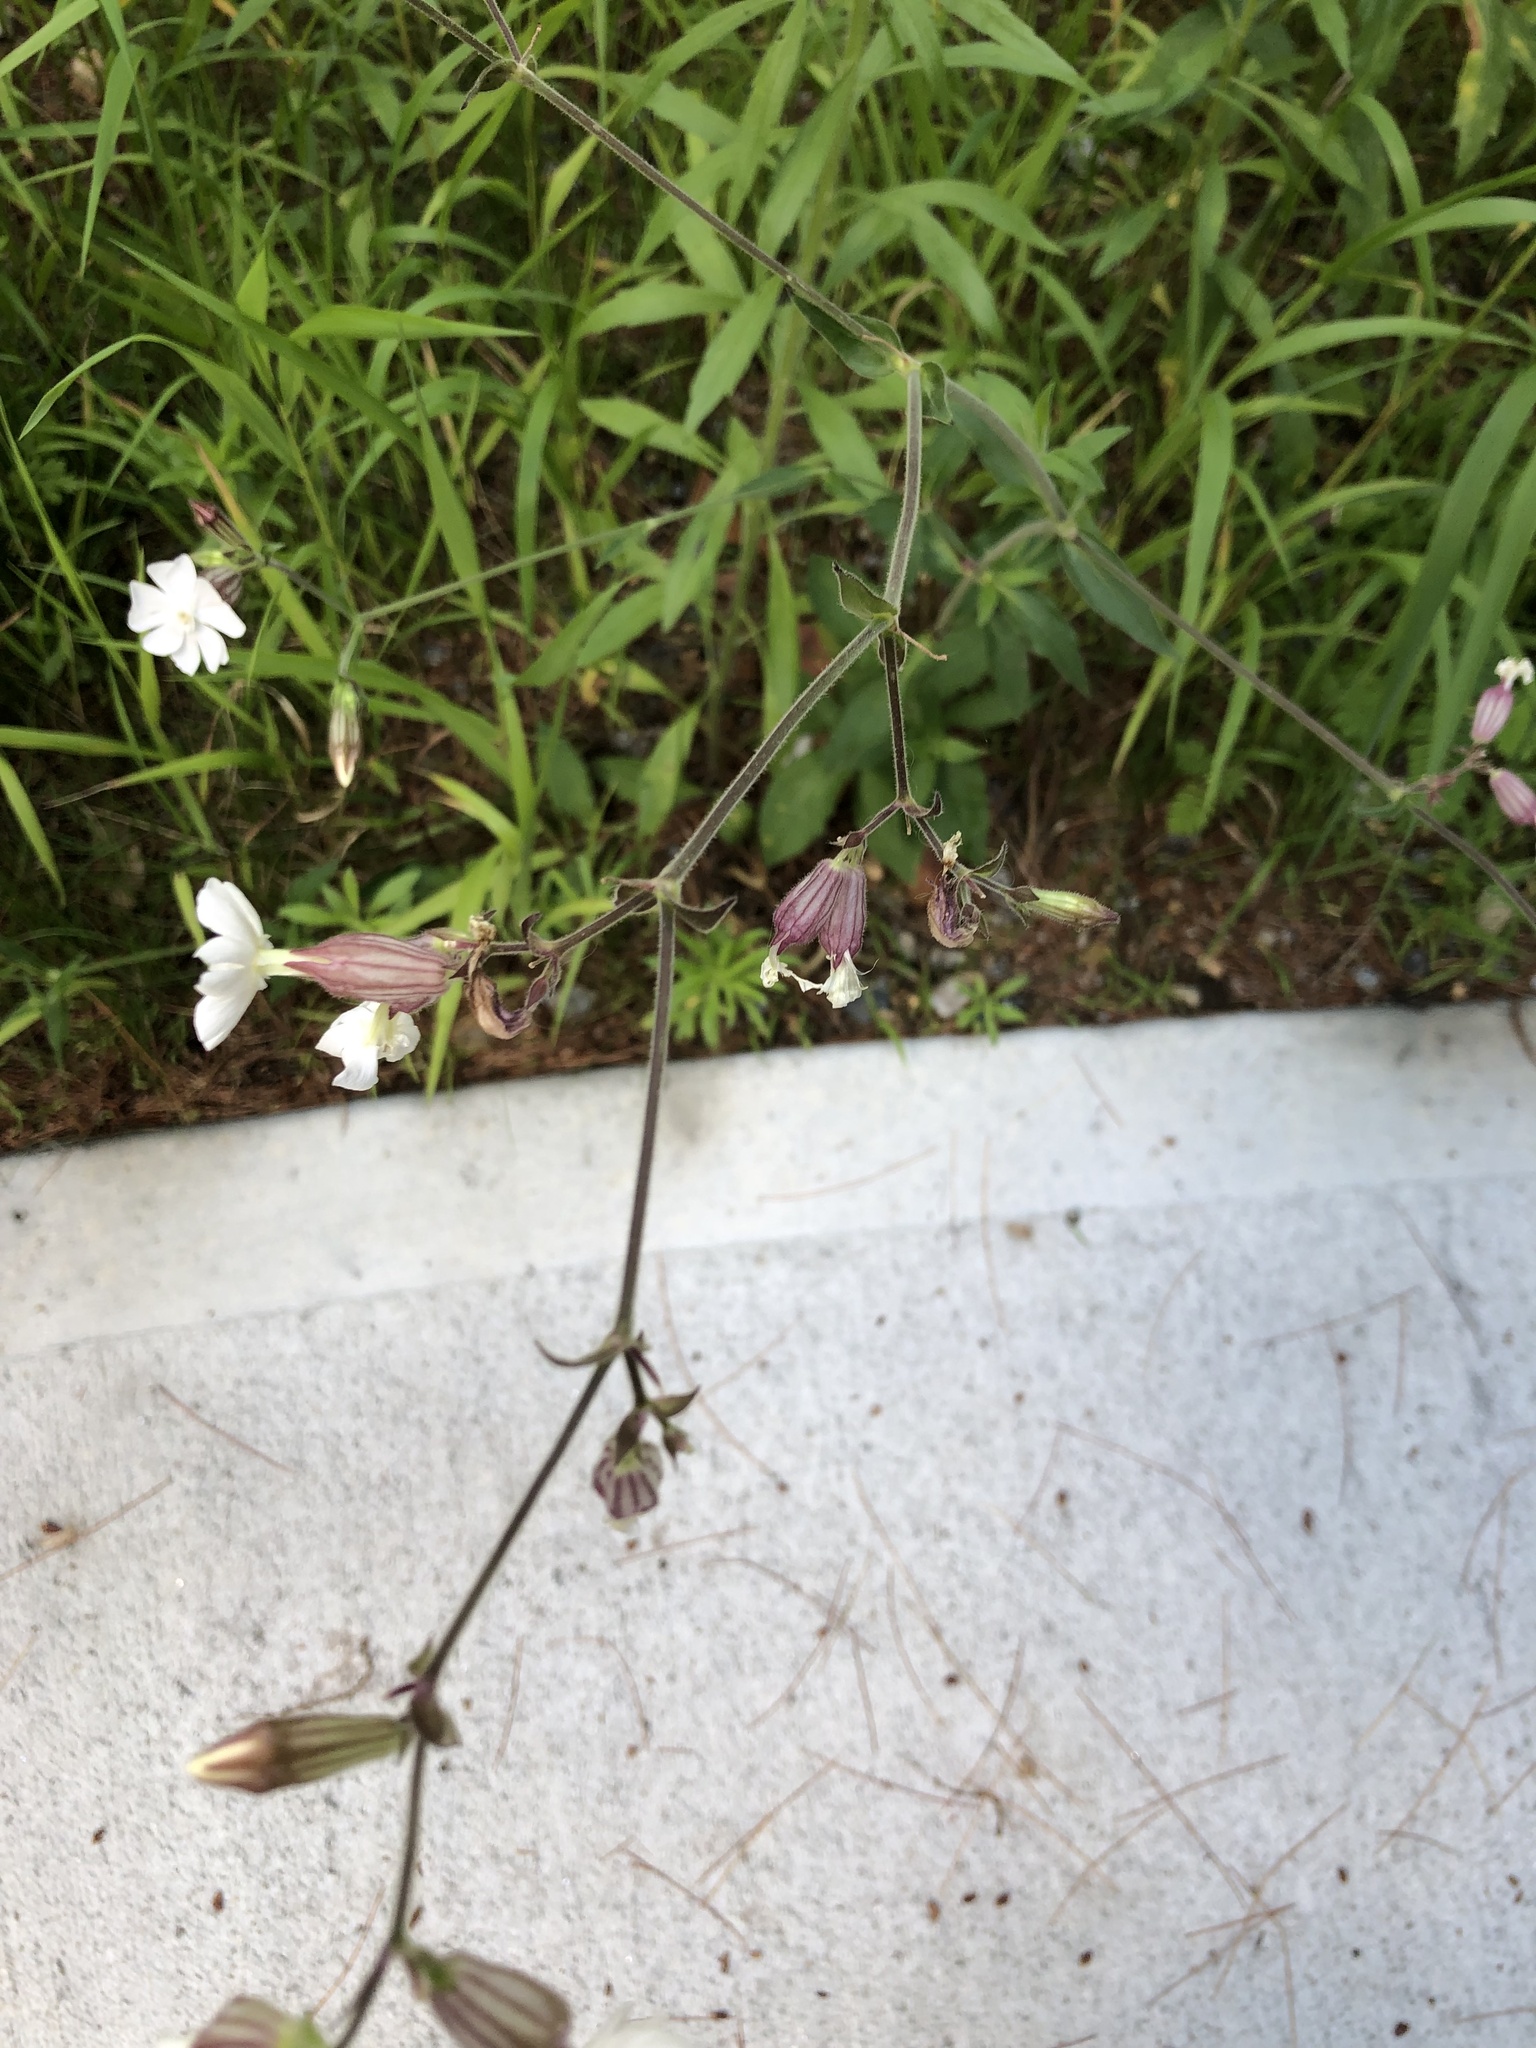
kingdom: Plantae
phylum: Tracheophyta
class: Magnoliopsida
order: Caryophyllales
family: Caryophyllaceae
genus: Silene
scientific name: Silene latifolia
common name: White campion
